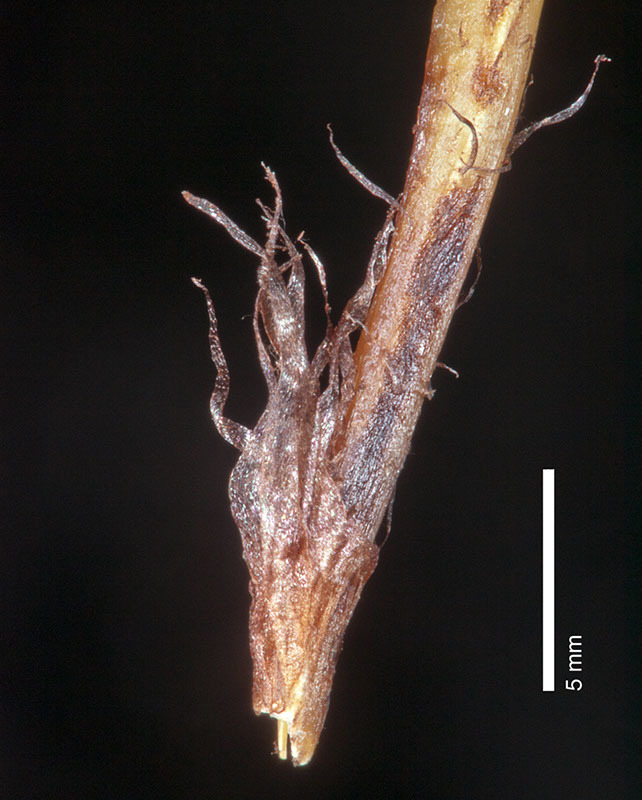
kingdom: Plantae
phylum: Tracheophyta
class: Polypodiopsida
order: Polypodiales
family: Aspleniaceae
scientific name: Aspleniaceae
